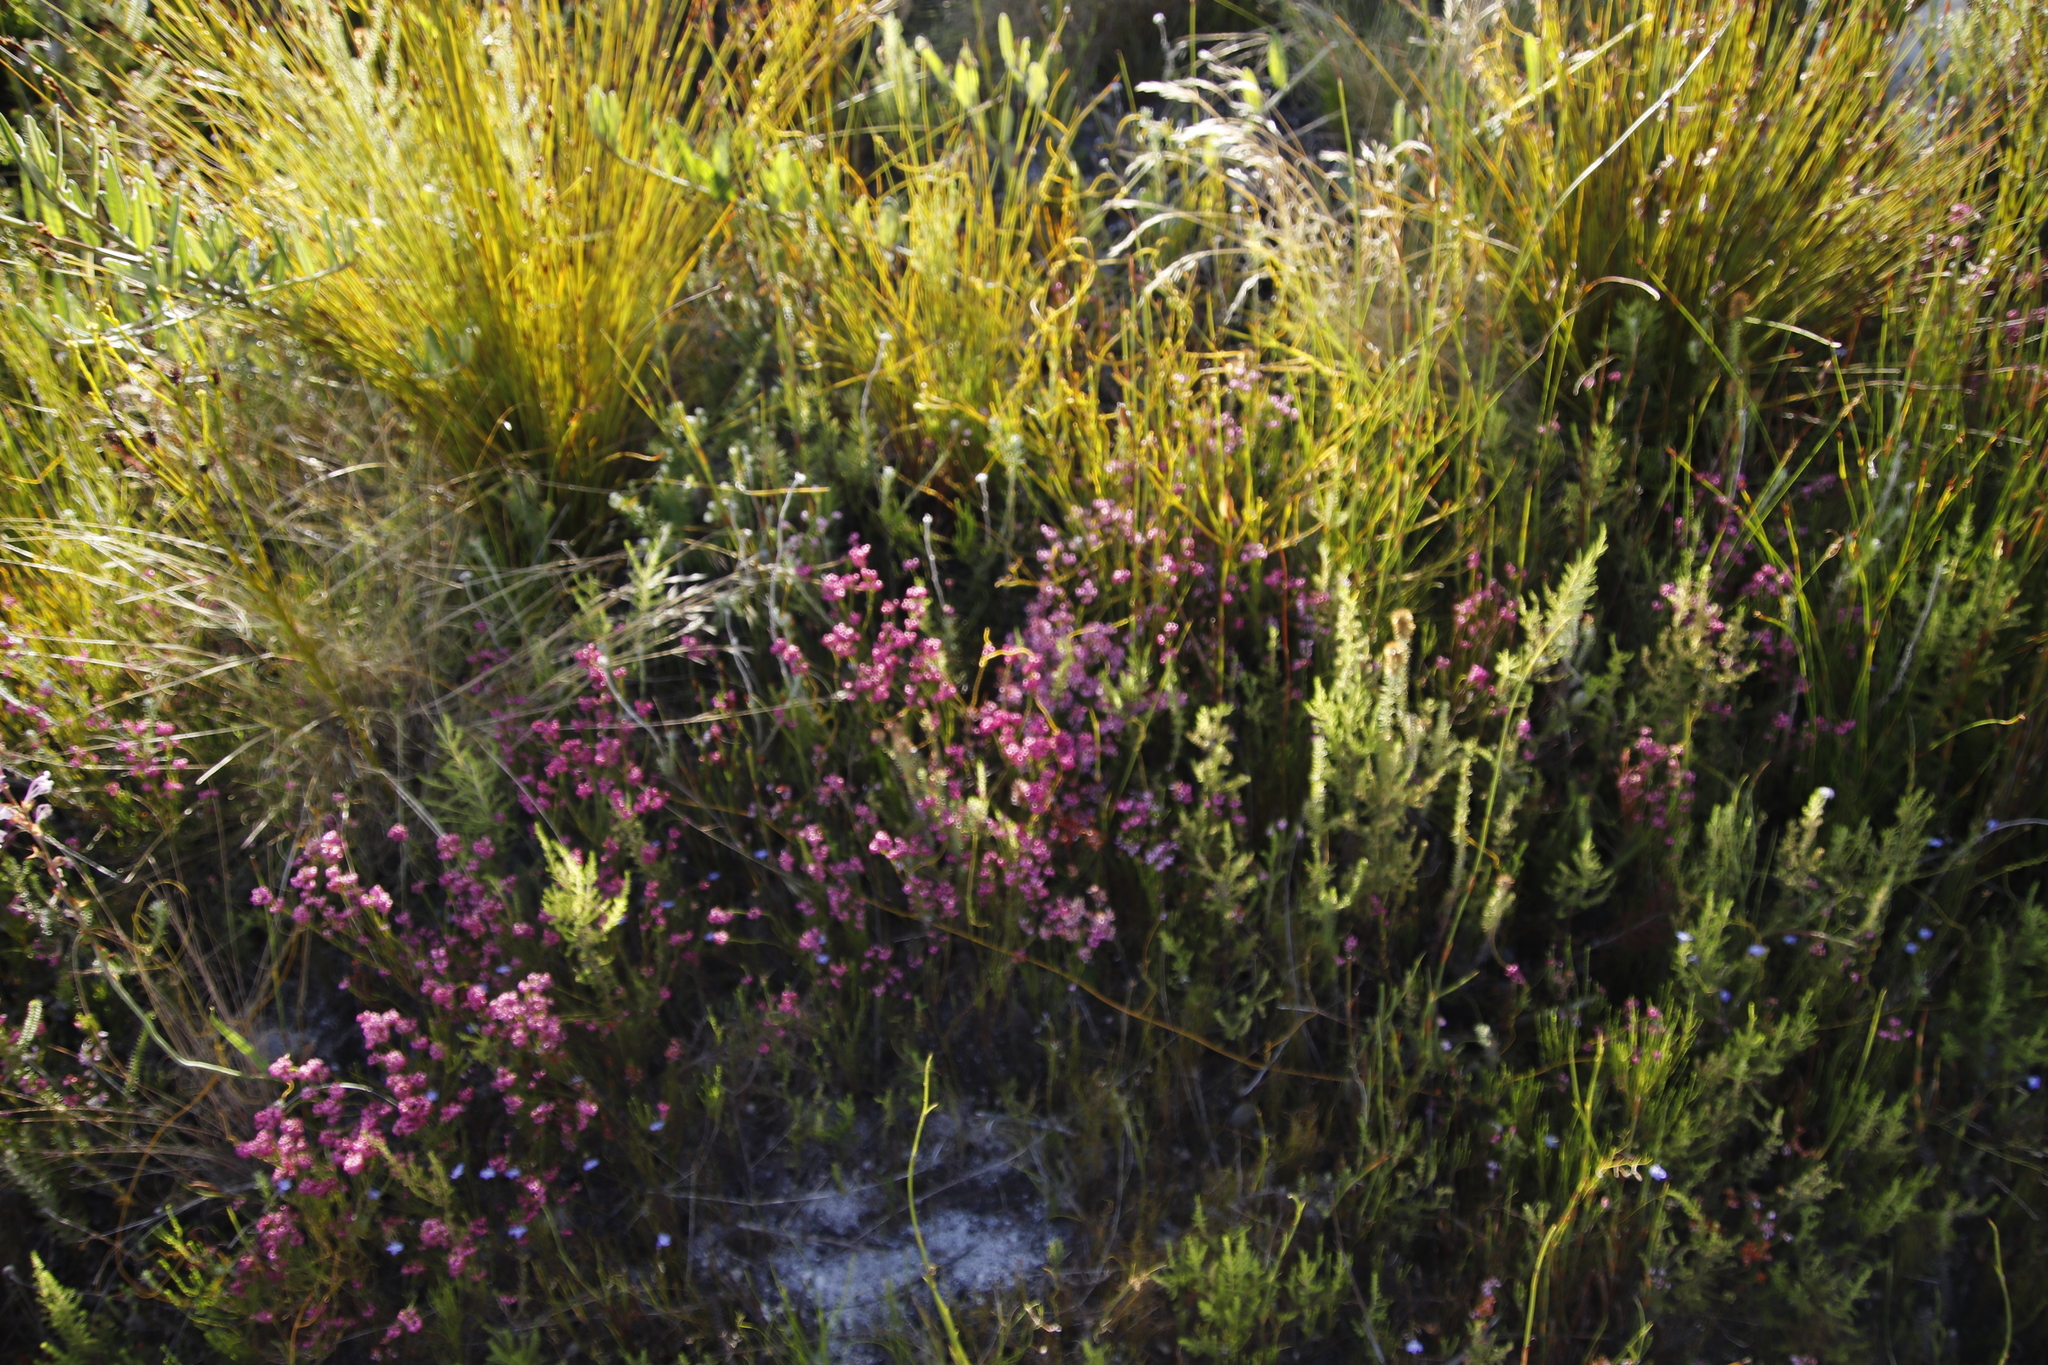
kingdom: Plantae
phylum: Tracheophyta
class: Magnoliopsida
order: Ericales
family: Ericaceae
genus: Erica
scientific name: Erica rhopalantha
